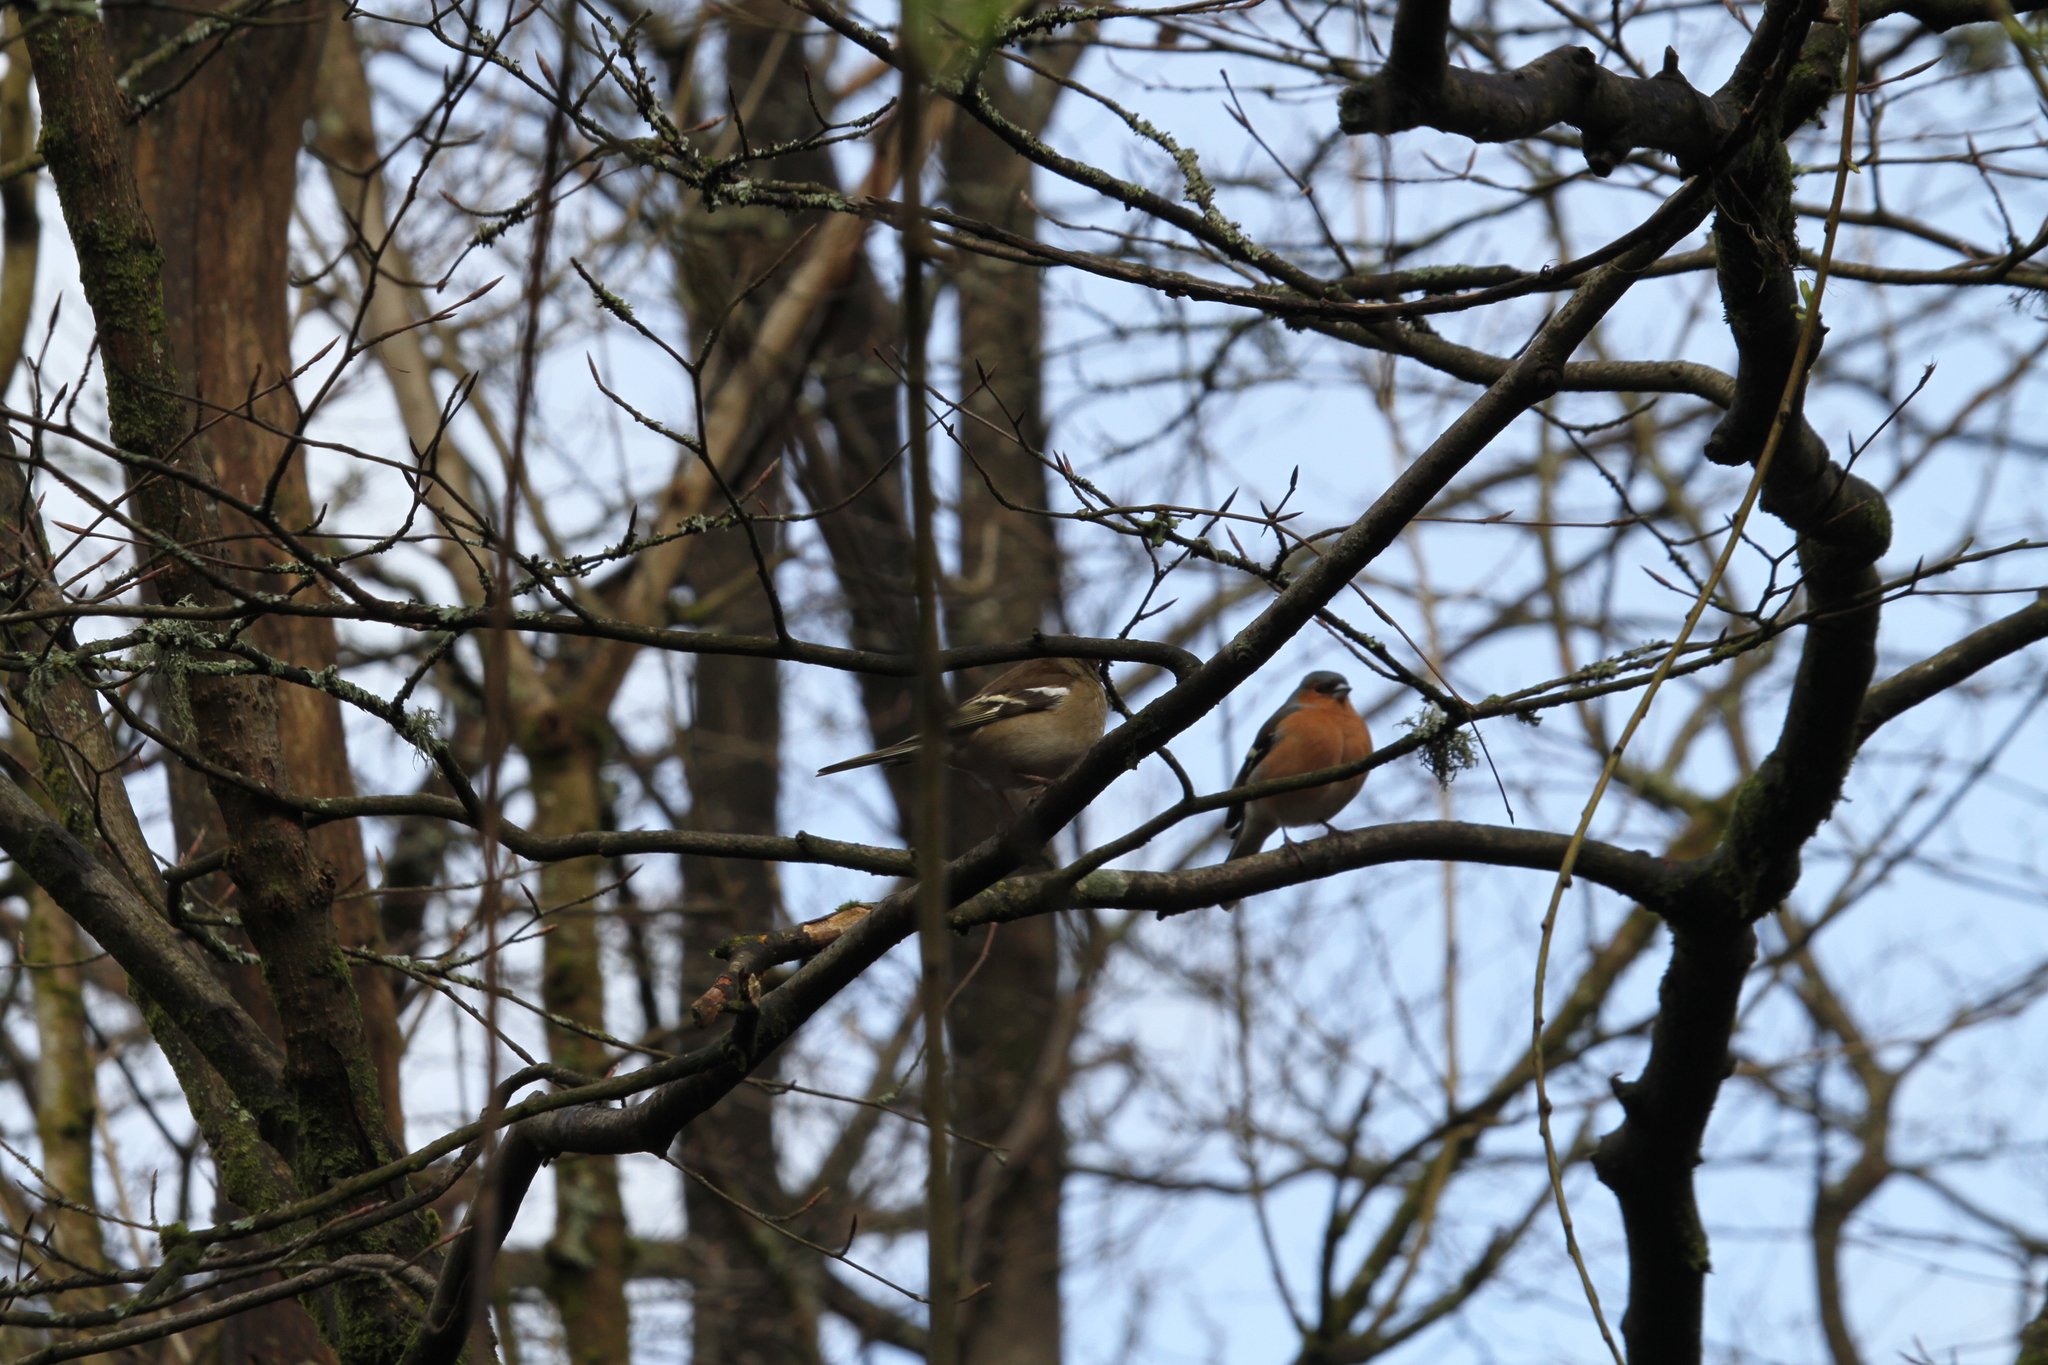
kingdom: Animalia
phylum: Chordata
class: Aves
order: Passeriformes
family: Fringillidae
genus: Fringilla
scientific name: Fringilla coelebs
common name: Common chaffinch
